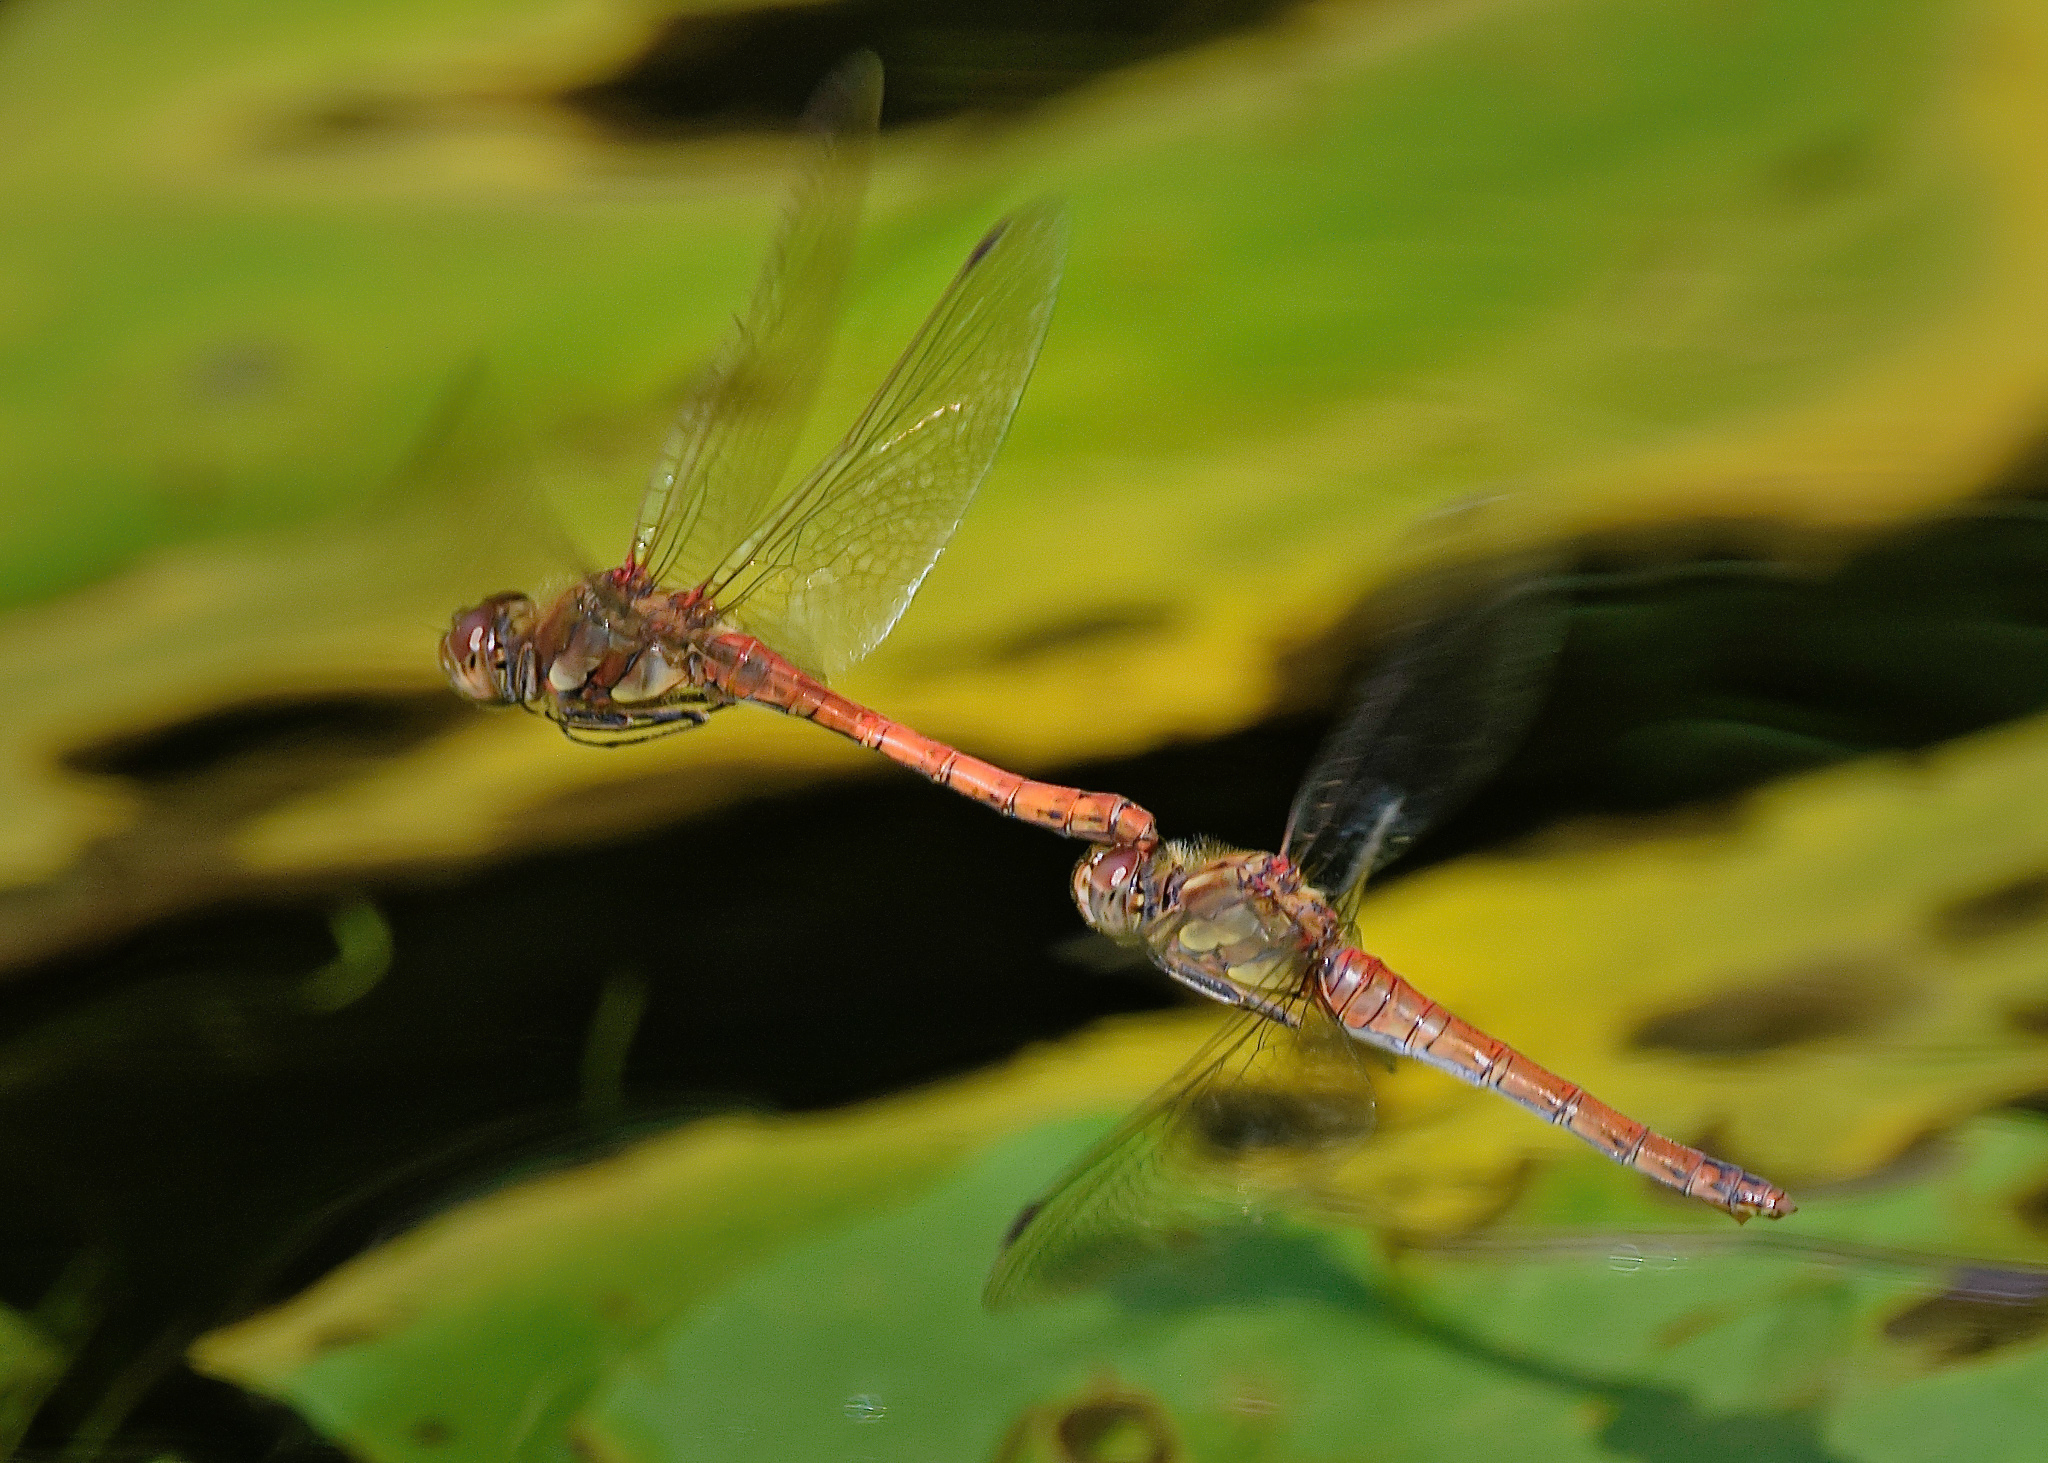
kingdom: Animalia
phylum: Arthropoda
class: Insecta
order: Odonata
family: Libellulidae
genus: Sympetrum
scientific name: Sympetrum striolatum
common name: Common darter
